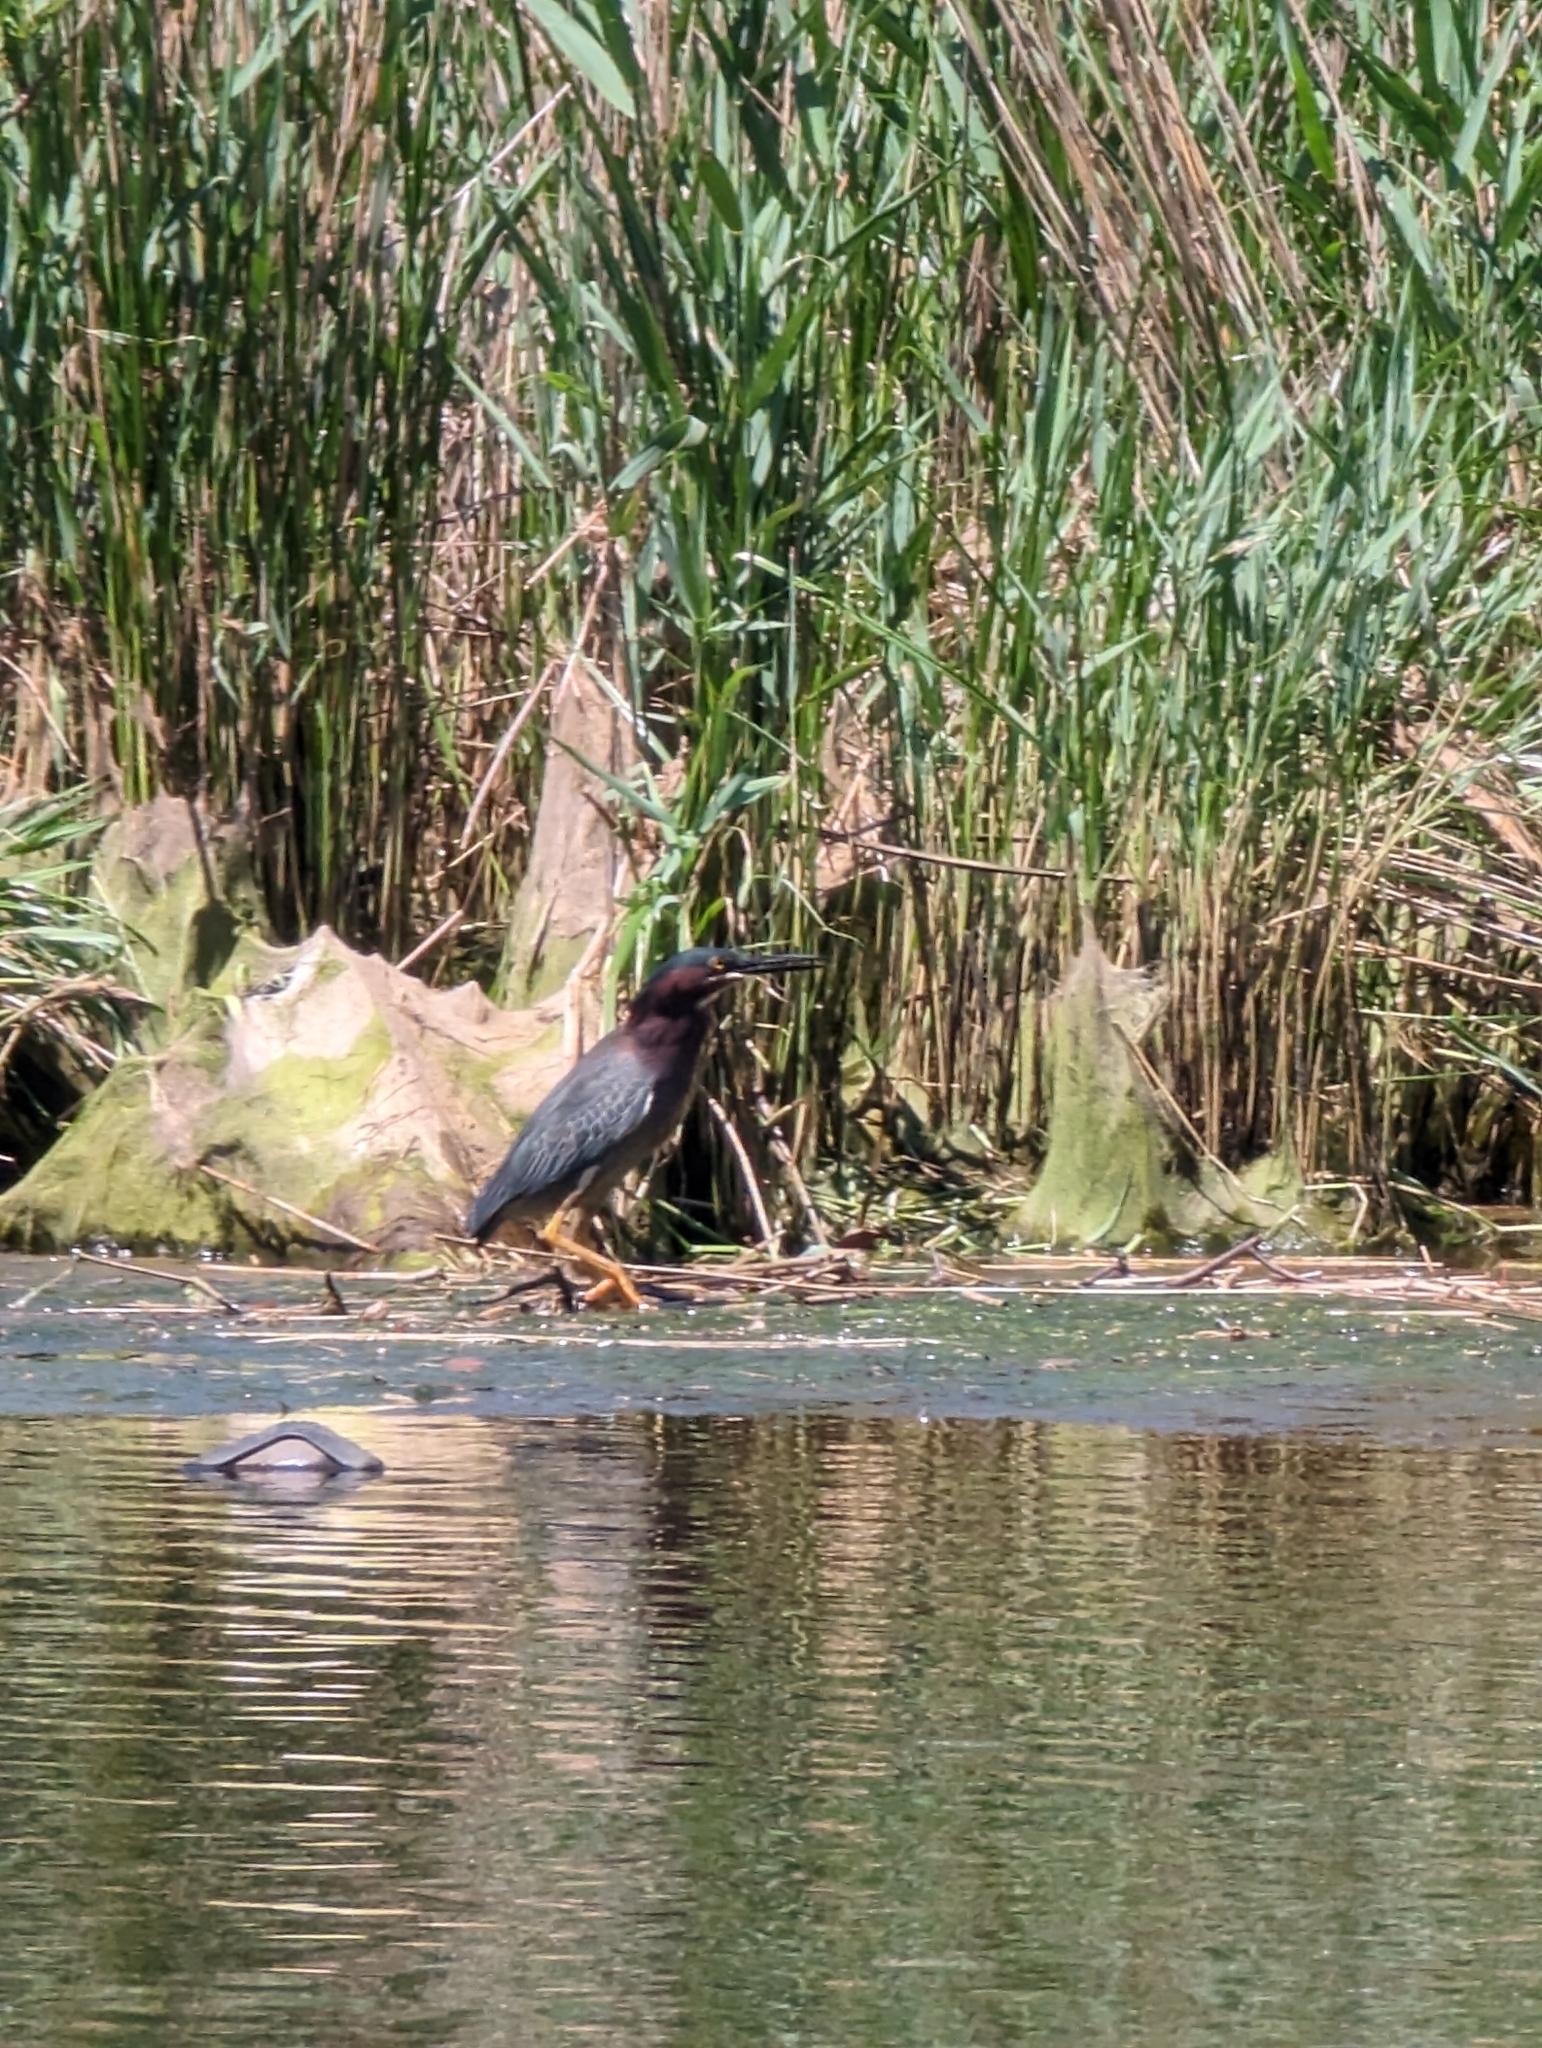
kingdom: Animalia
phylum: Chordata
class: Aves
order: Pelecaniformes
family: Ardeidae
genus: Butorides
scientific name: Butorides virescens
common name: Green heron
